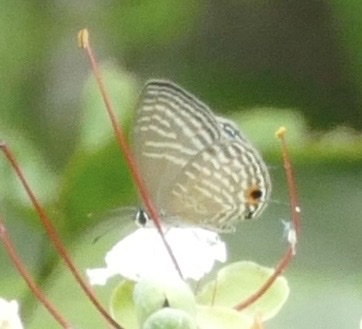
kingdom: Animalia
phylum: Arthropoda
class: Insecta
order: Lepidoptera
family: Lycaenidae
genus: Jamides
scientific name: Jamides alecto
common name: Metallic cerulean
